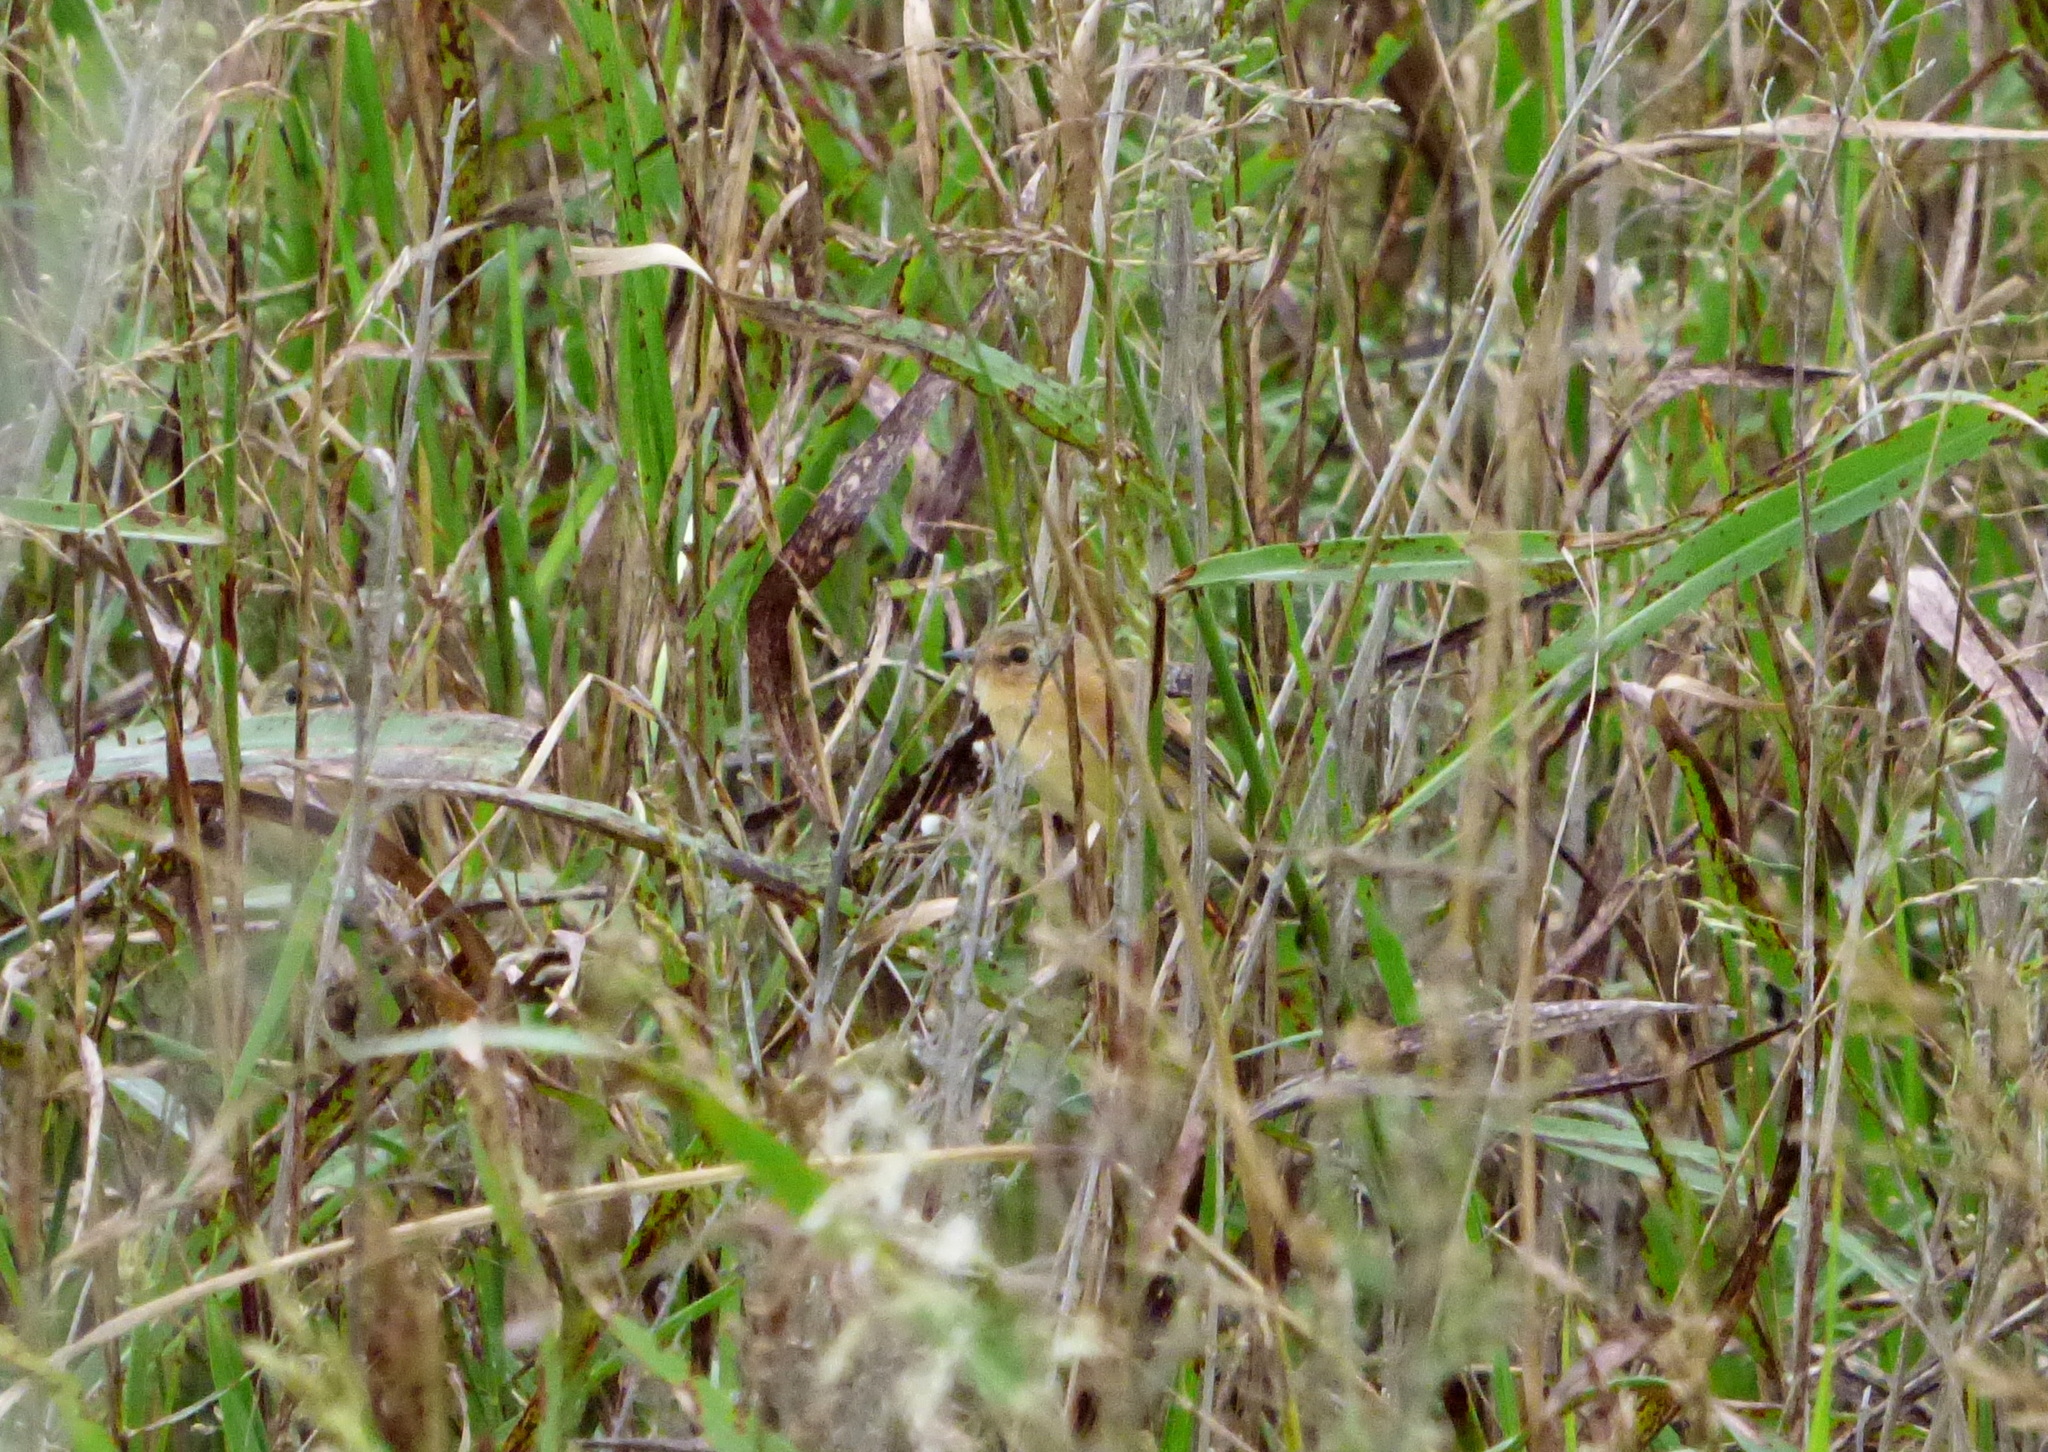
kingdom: Animalia
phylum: Chordata
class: Aves
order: Passeriformes
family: Tyrannidae
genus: Polystictus
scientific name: Polystictus pectoralis
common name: Bearded tachuri
